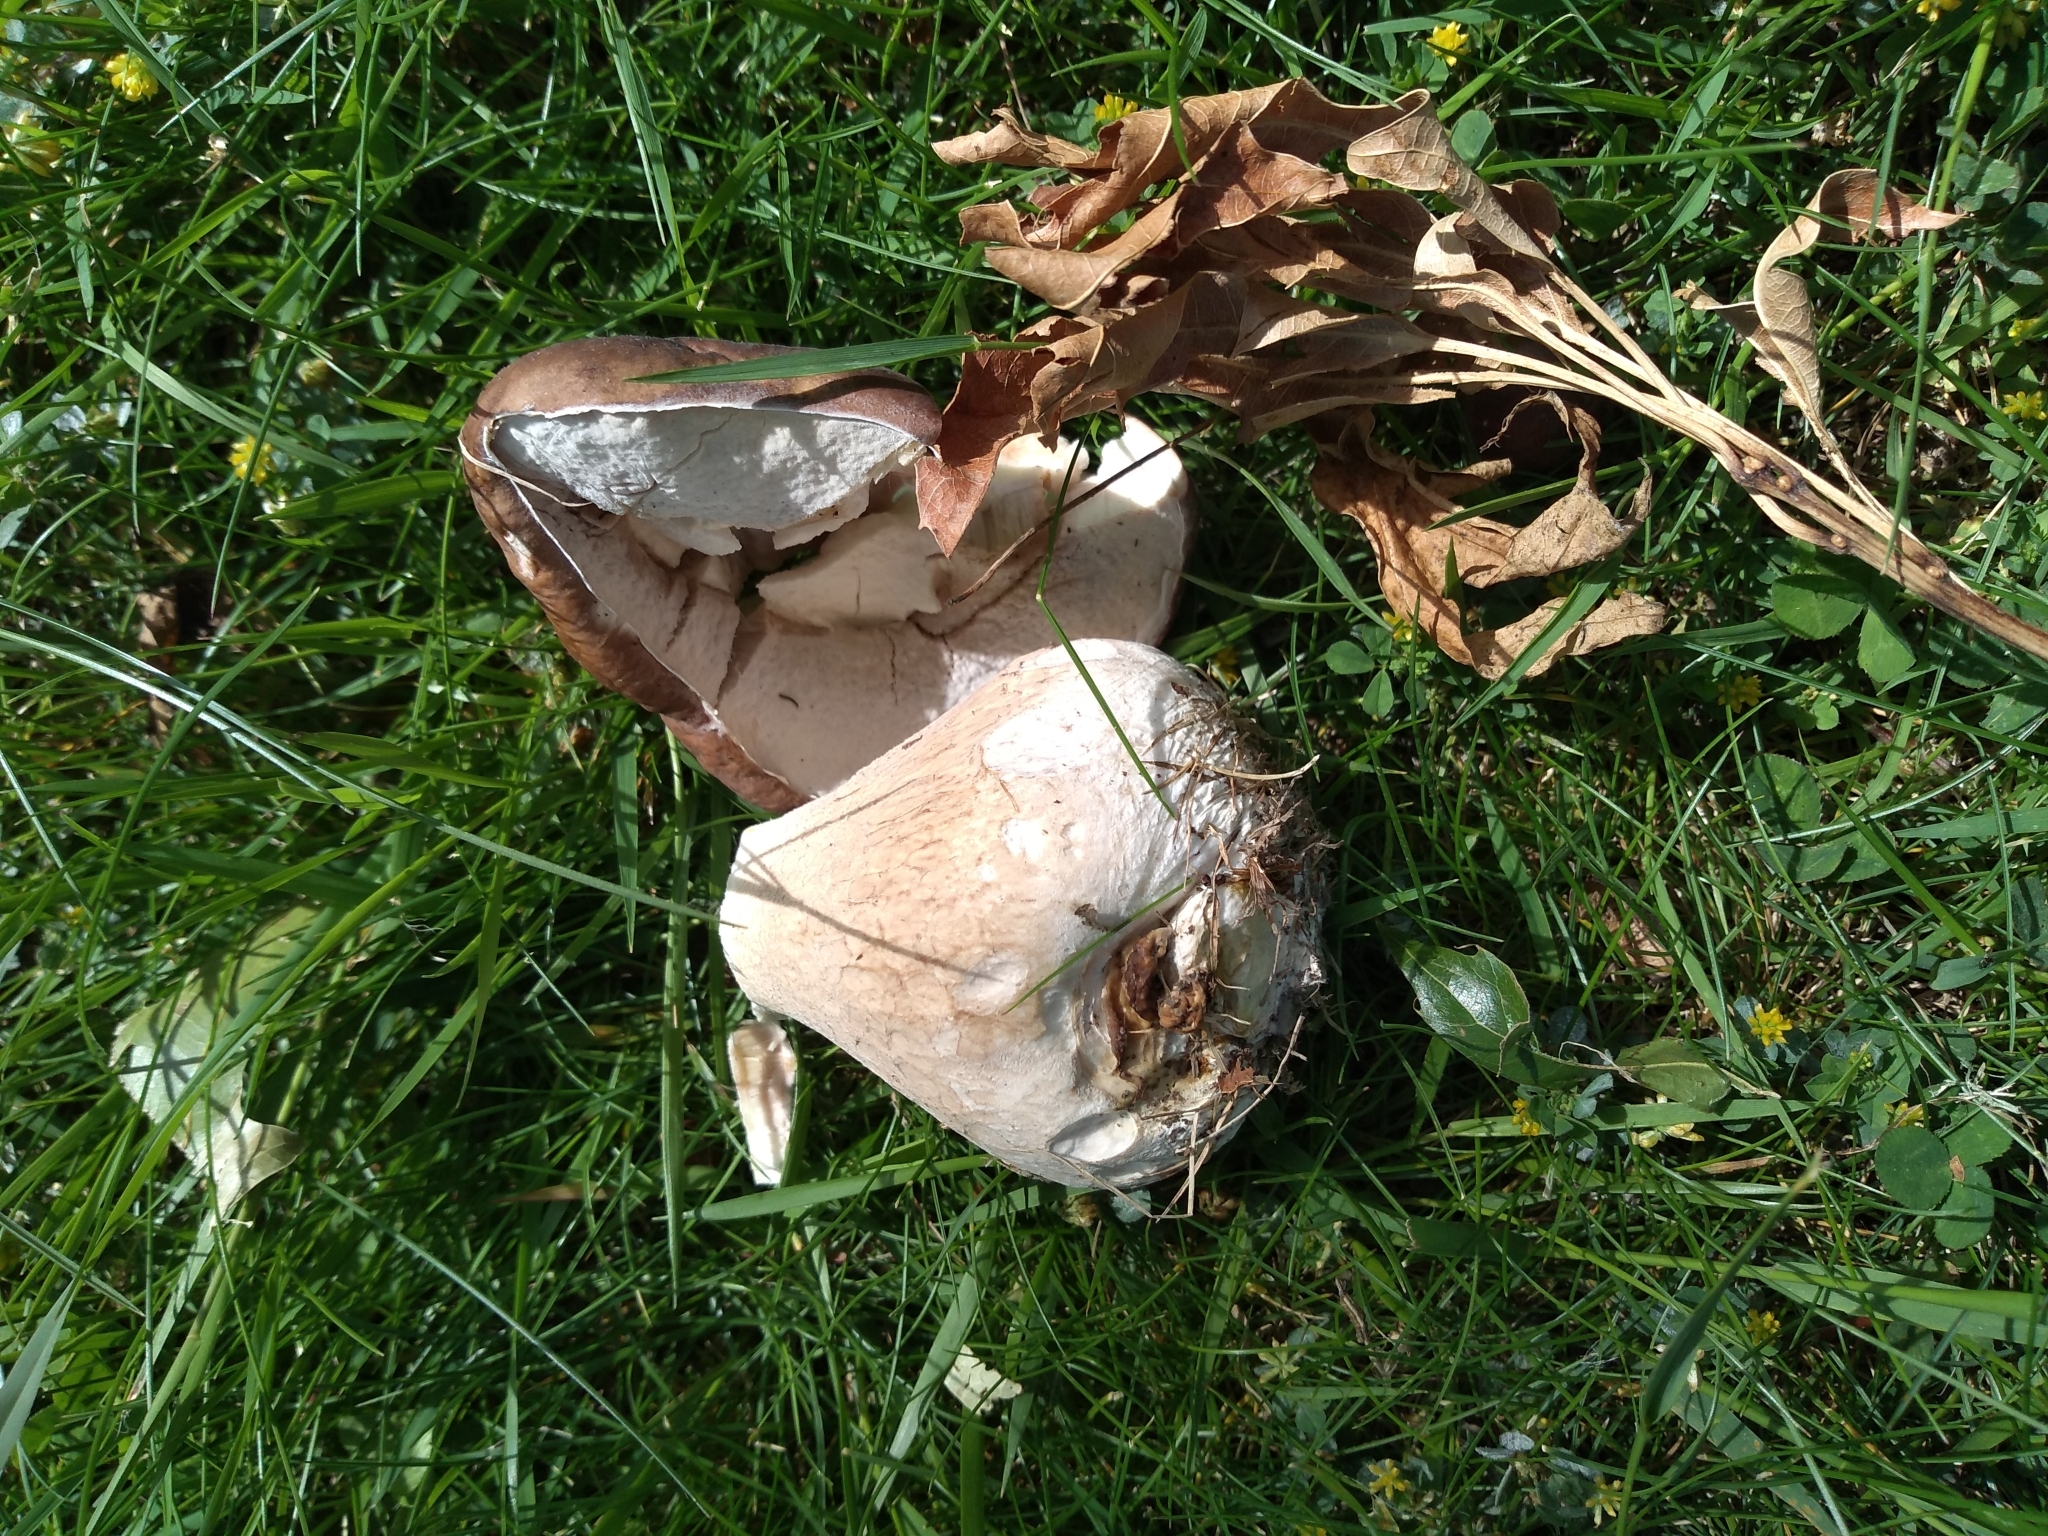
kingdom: Fungi
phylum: Basidiomycota
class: Agaricomycetes
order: Boletales
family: Boletaceae
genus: Boletus
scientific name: Boletus edulis
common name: Cep
